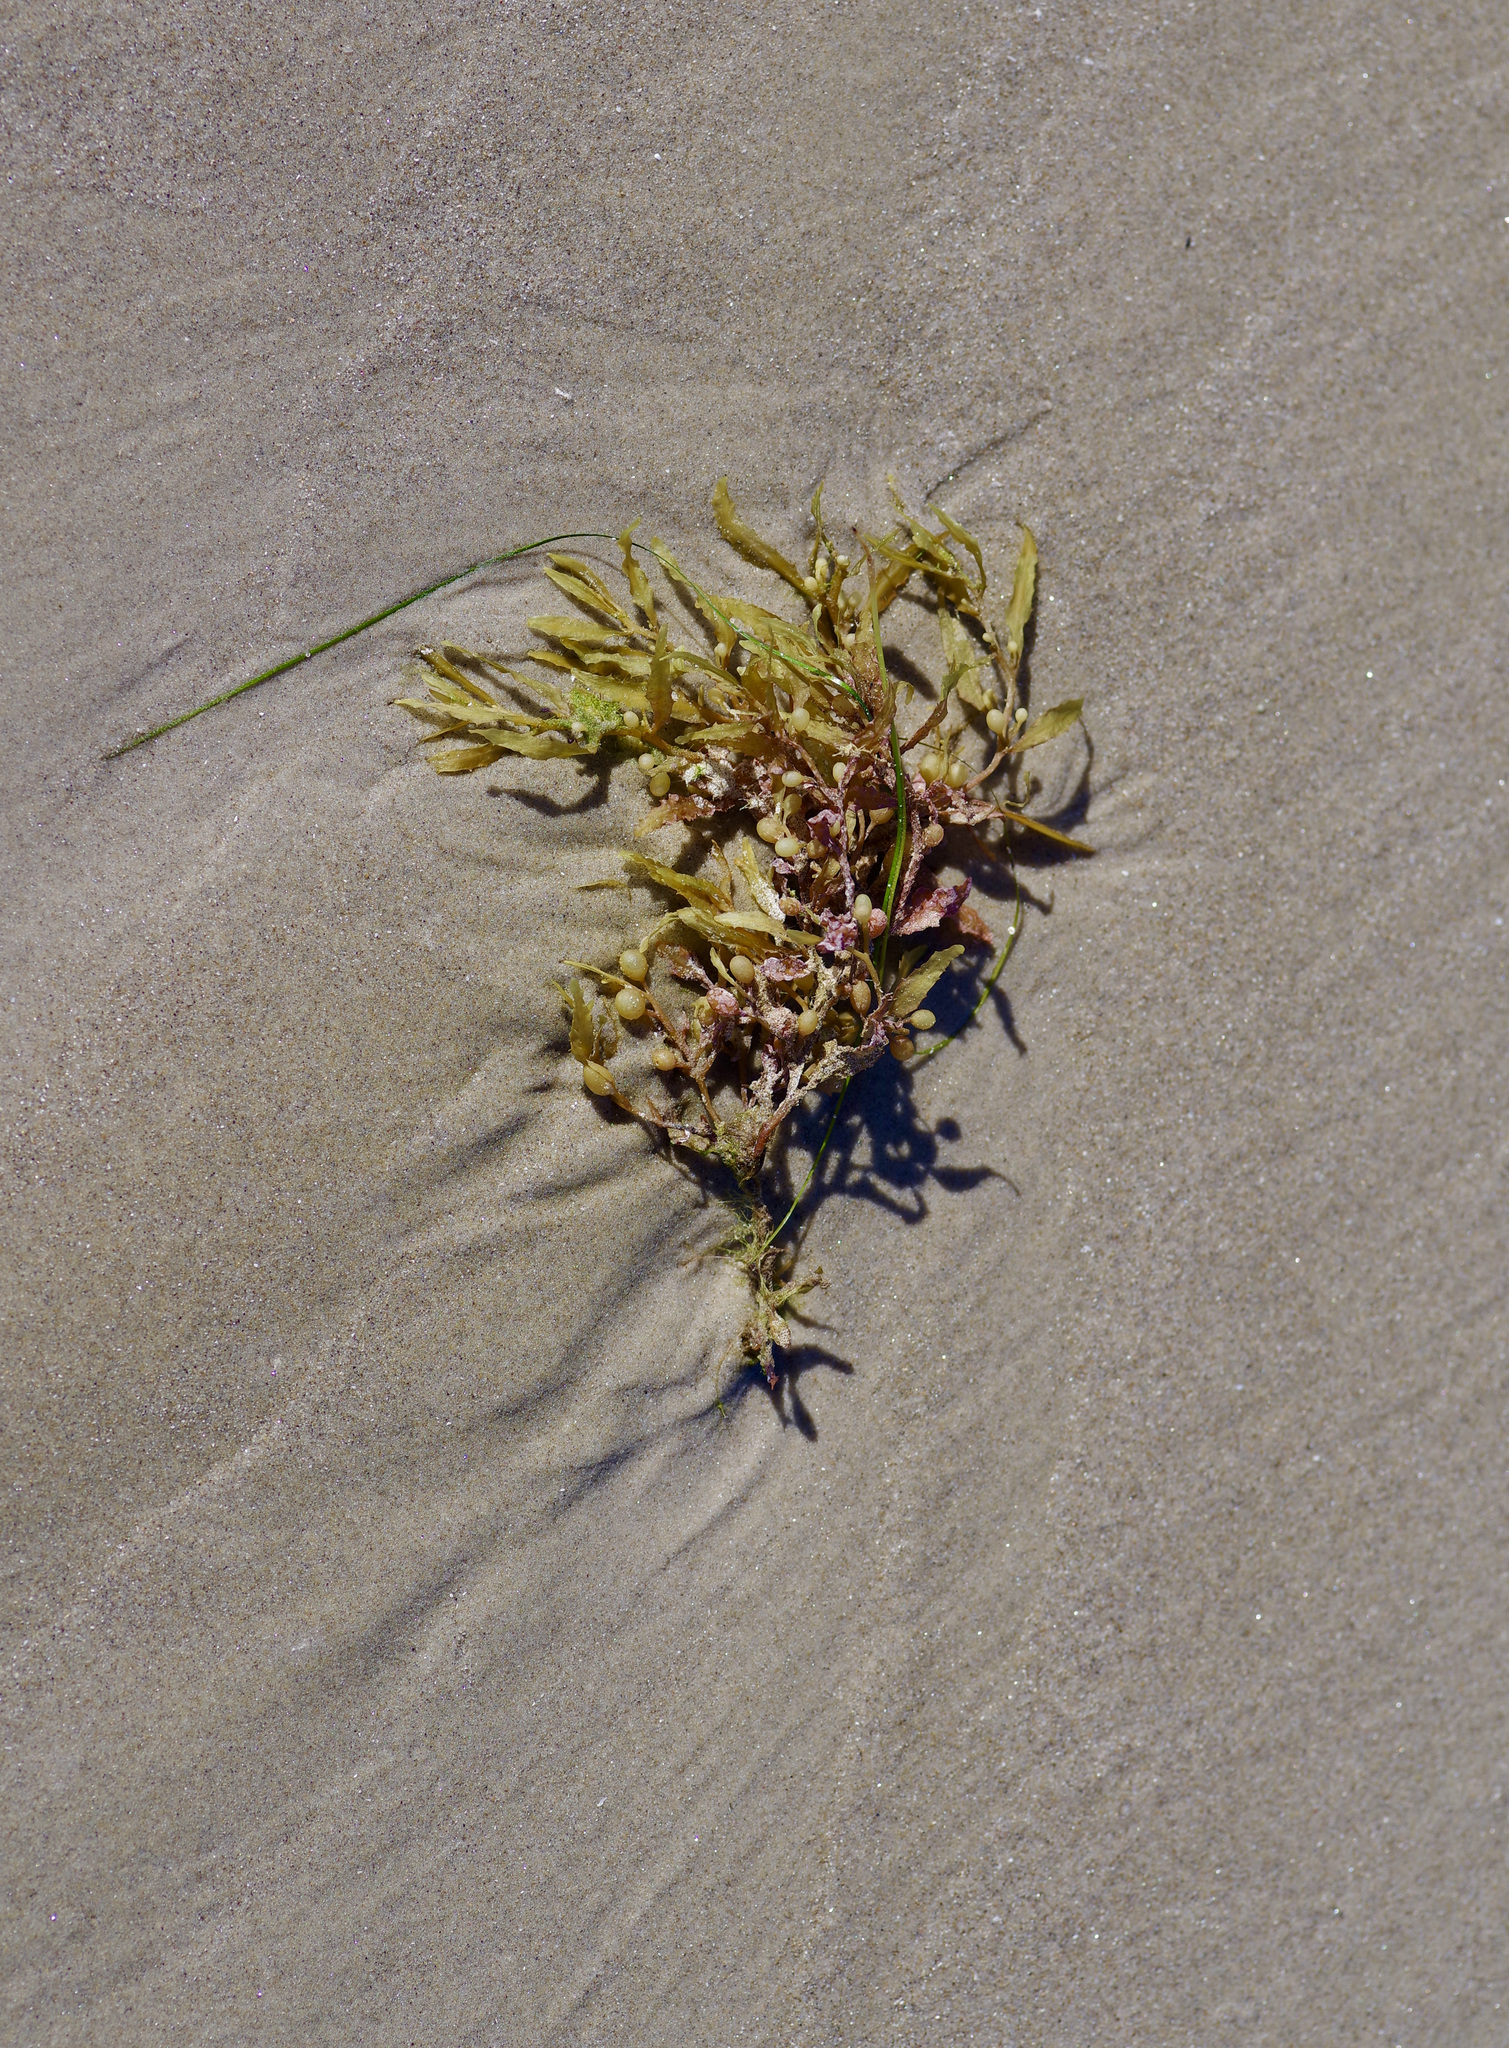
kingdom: Chromista
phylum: Ochrophyta
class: Phaeophyceae
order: Fucales
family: Sargassaceae
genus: Sargassum
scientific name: Sargassum fluitans
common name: Sargassum seaweed
